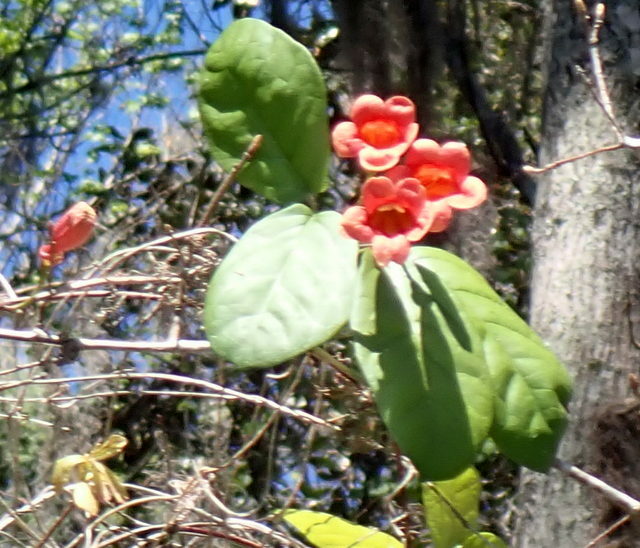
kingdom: Plantae
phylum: Tracheophyta
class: Magnoliopsida
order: Lamiales
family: Bignoniaceae
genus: Bignonia
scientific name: Bignonia capreolata
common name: Crossvine
